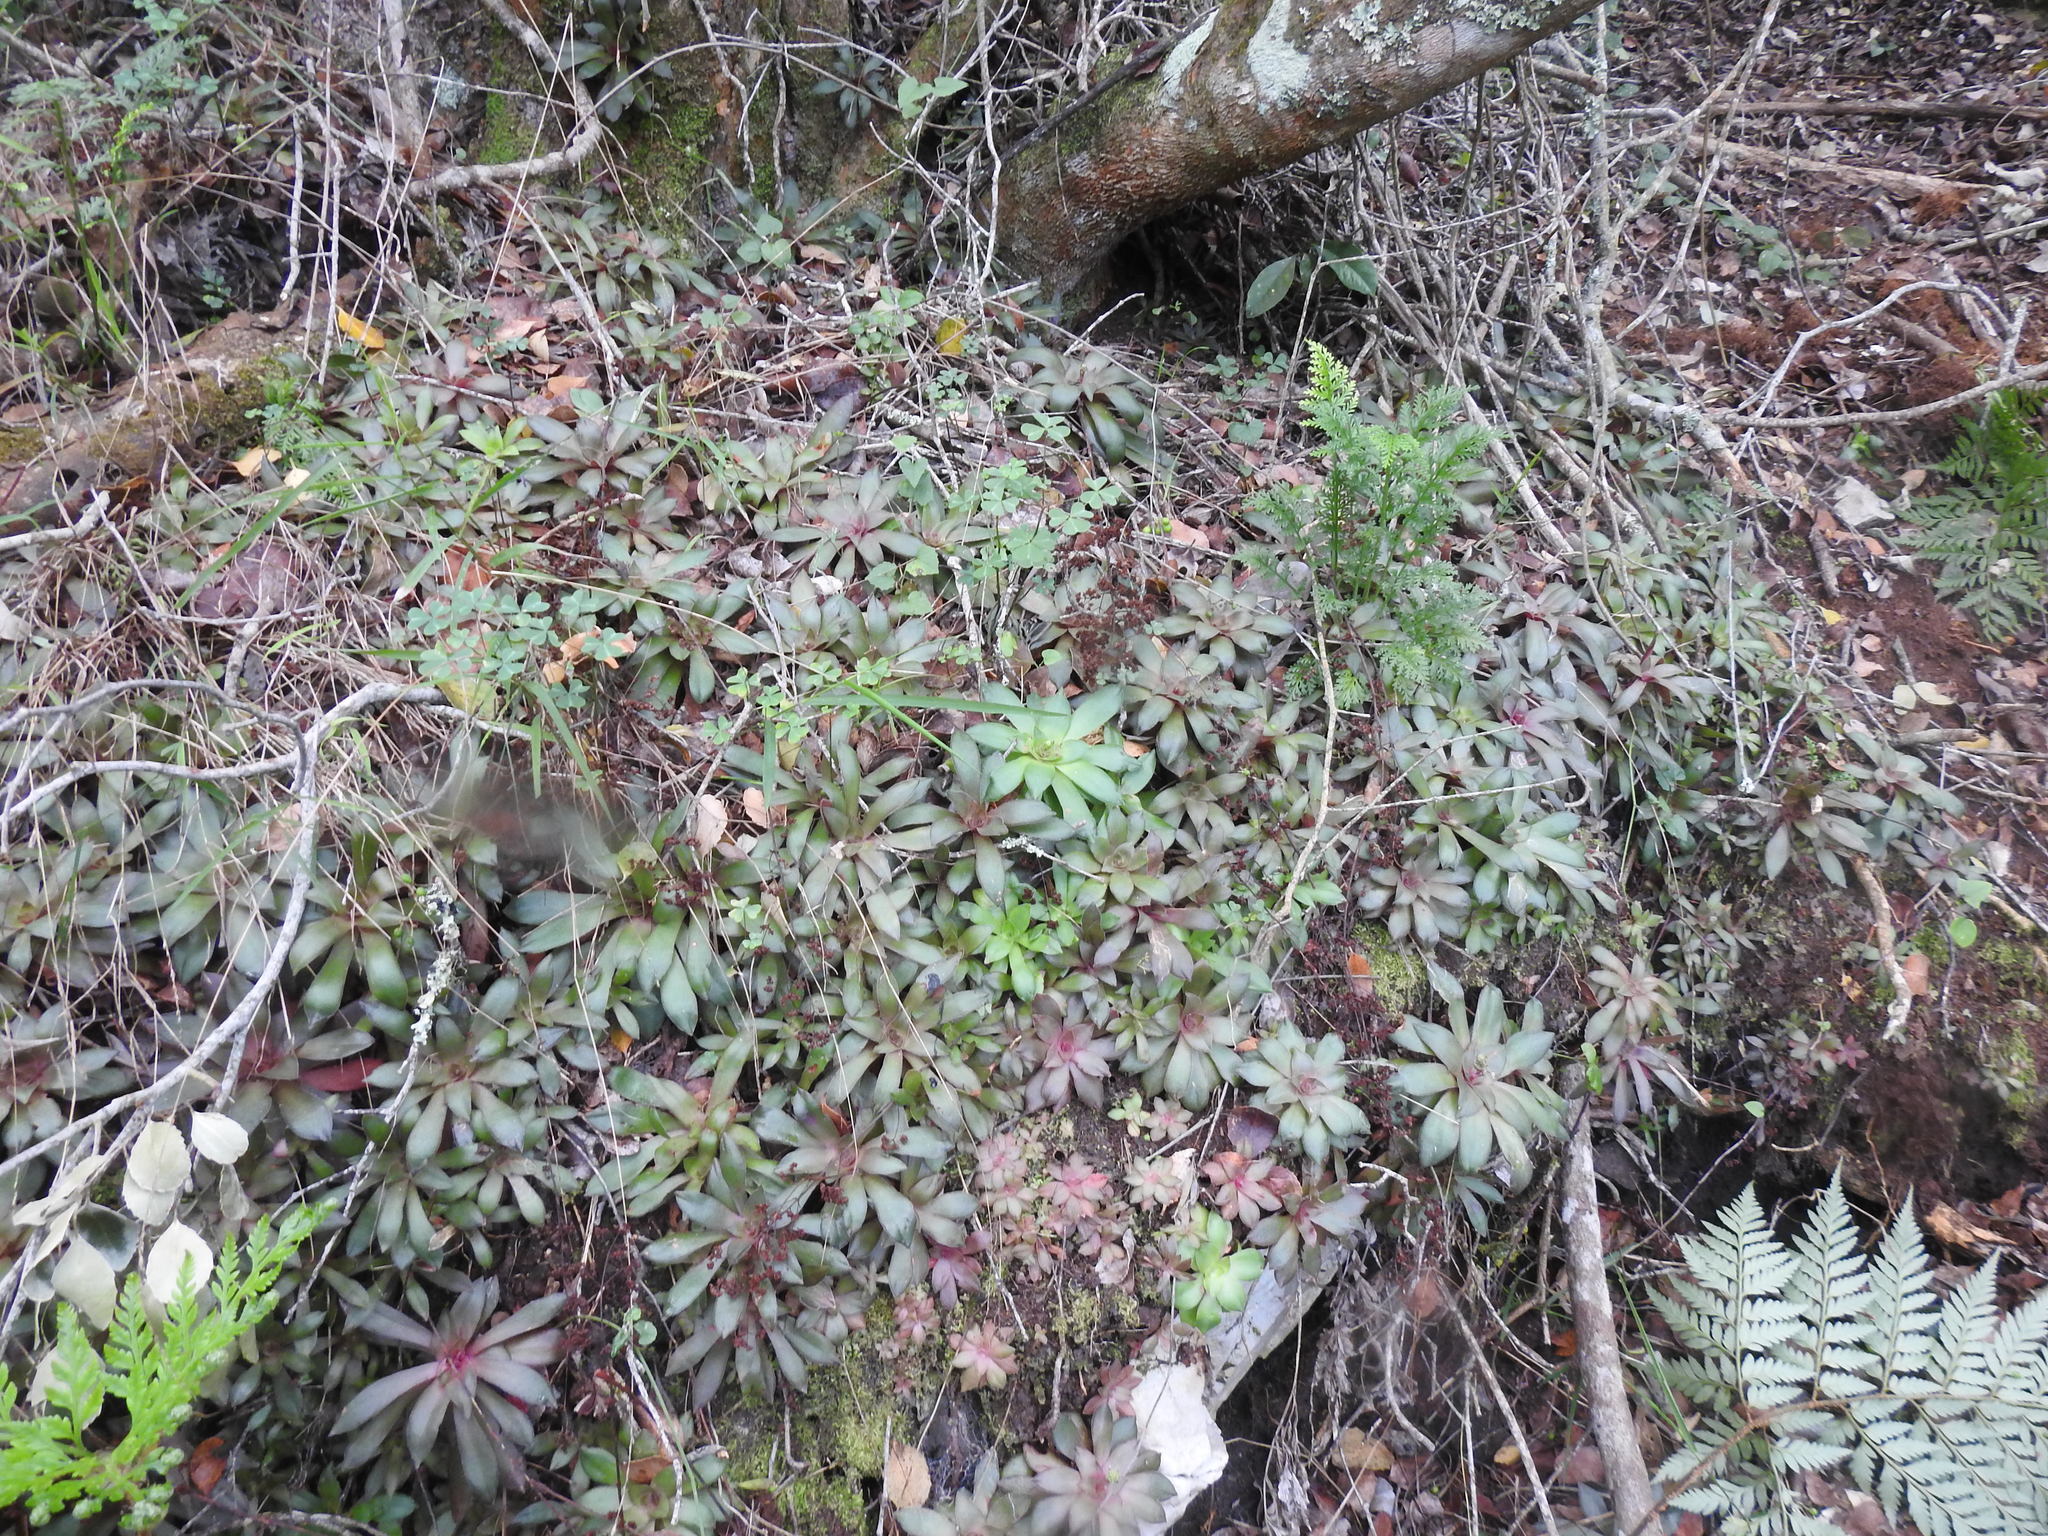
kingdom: Plantae
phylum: Tracheophyta
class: Magnoliopsida
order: Saxifragales
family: Crassulaceae
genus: Crassula
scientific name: Crassula orbicularis
